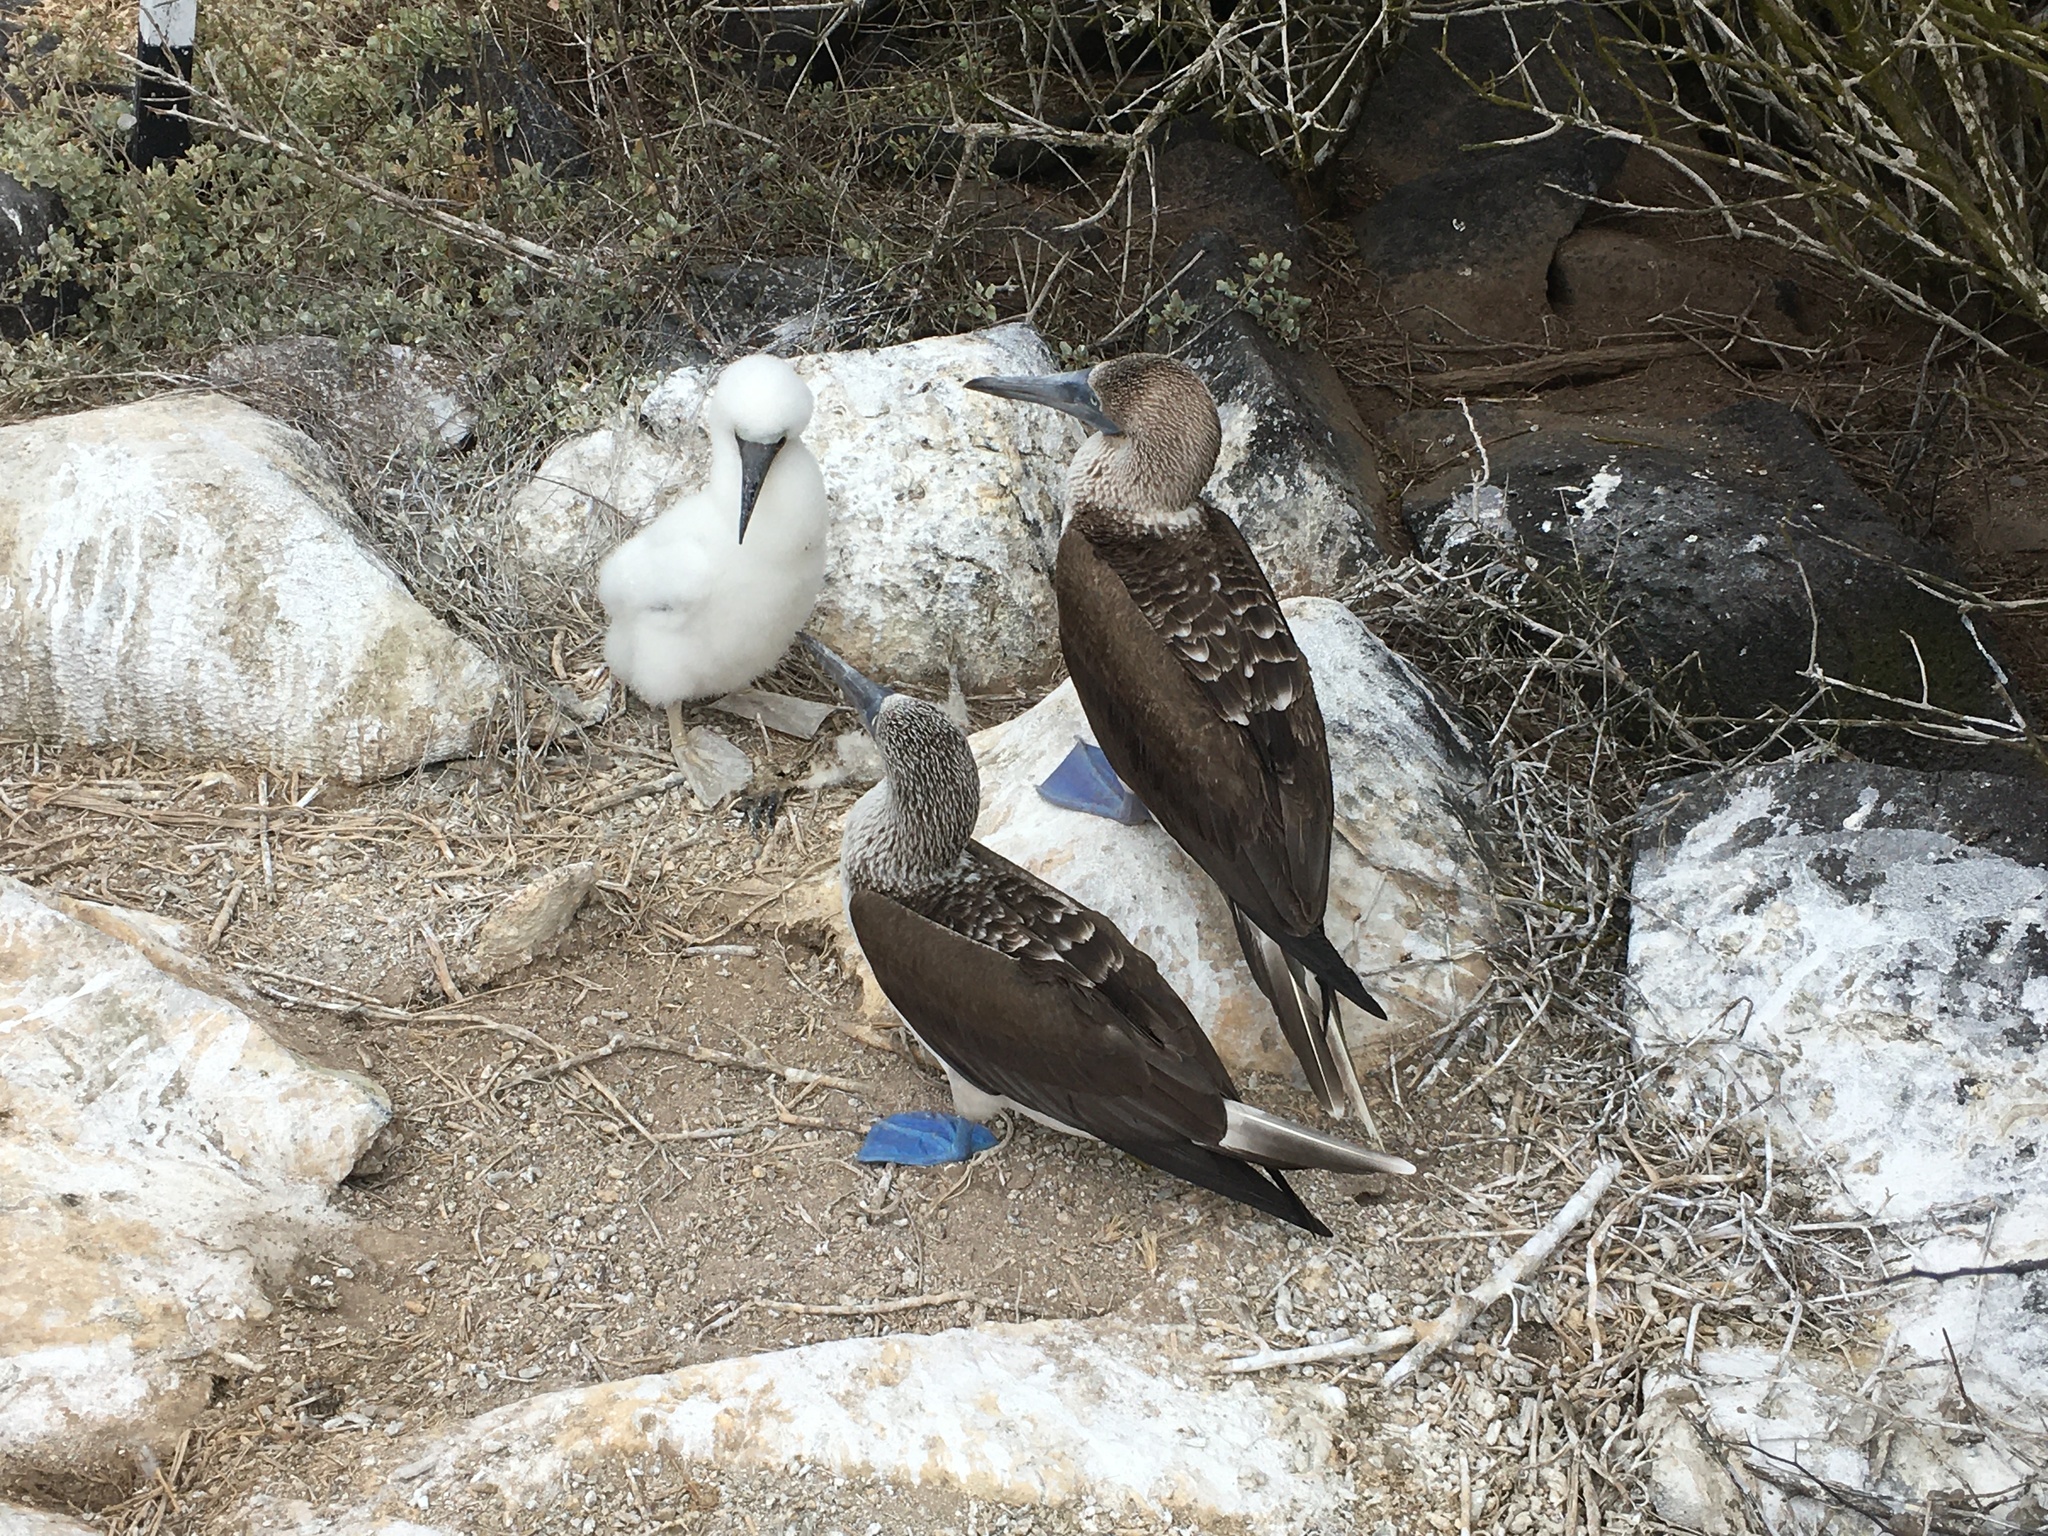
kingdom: Animalia
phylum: Chordata
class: Aves
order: Suliformes
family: Sulidae
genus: Sula
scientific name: Sula nebouxii
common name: Blue-footed booby
